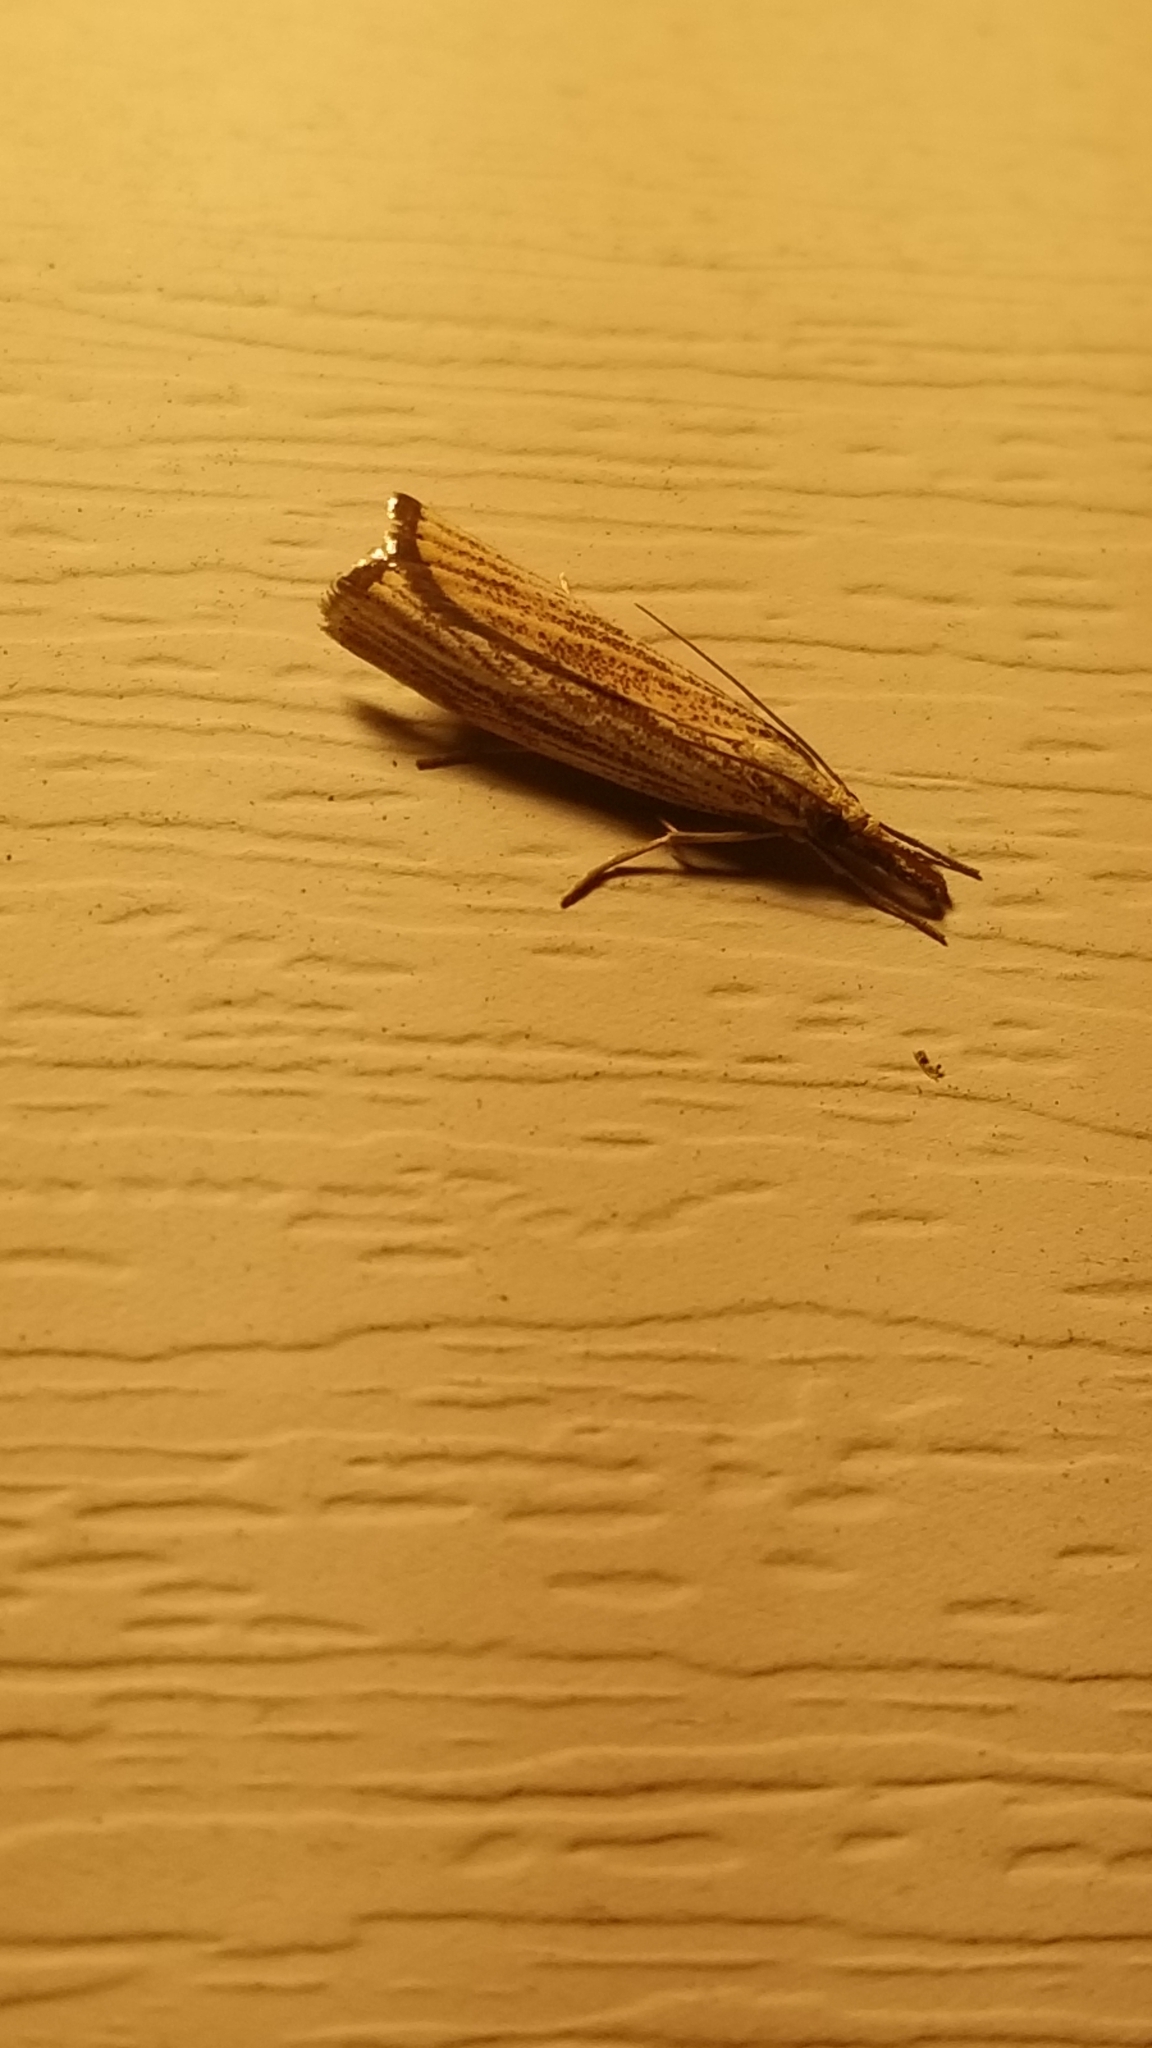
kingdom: Animalia
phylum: Arthropoda
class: Insecta
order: Lepidoptera
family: Crambidae
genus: Agriphila
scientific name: Agriphila ruricolellus
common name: Lesser vagabond sod webworm
